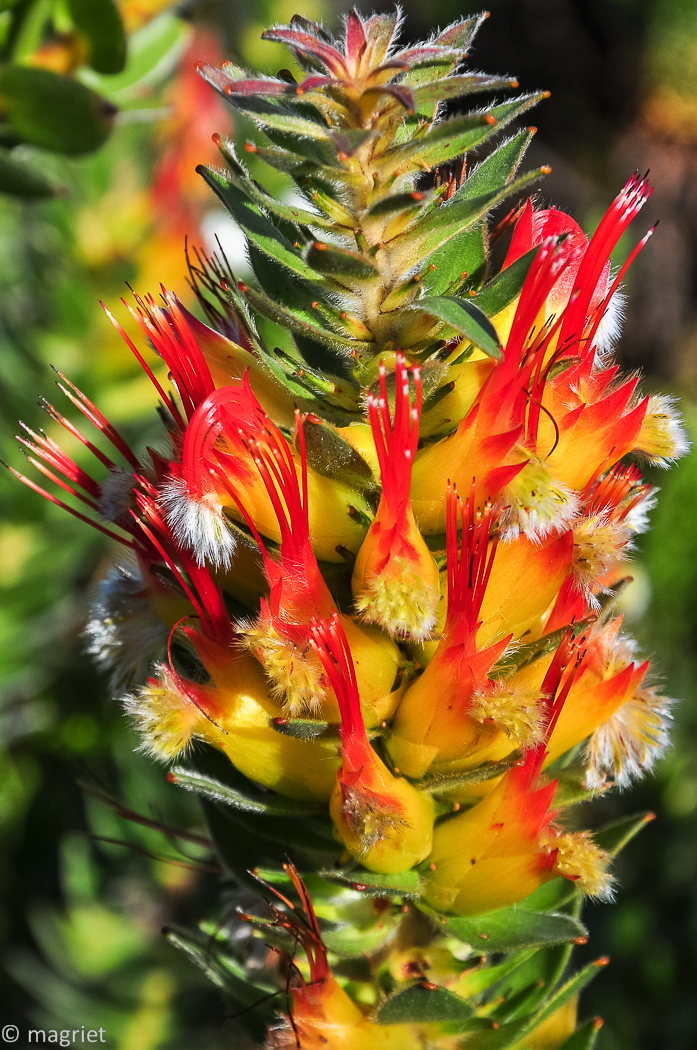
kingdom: Plantae
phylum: Tracheophyta
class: Magnoliopsida
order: Proteales
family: Proteaceae
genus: Mimetes
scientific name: Mimetes hirtus
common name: Marsh pagoda
